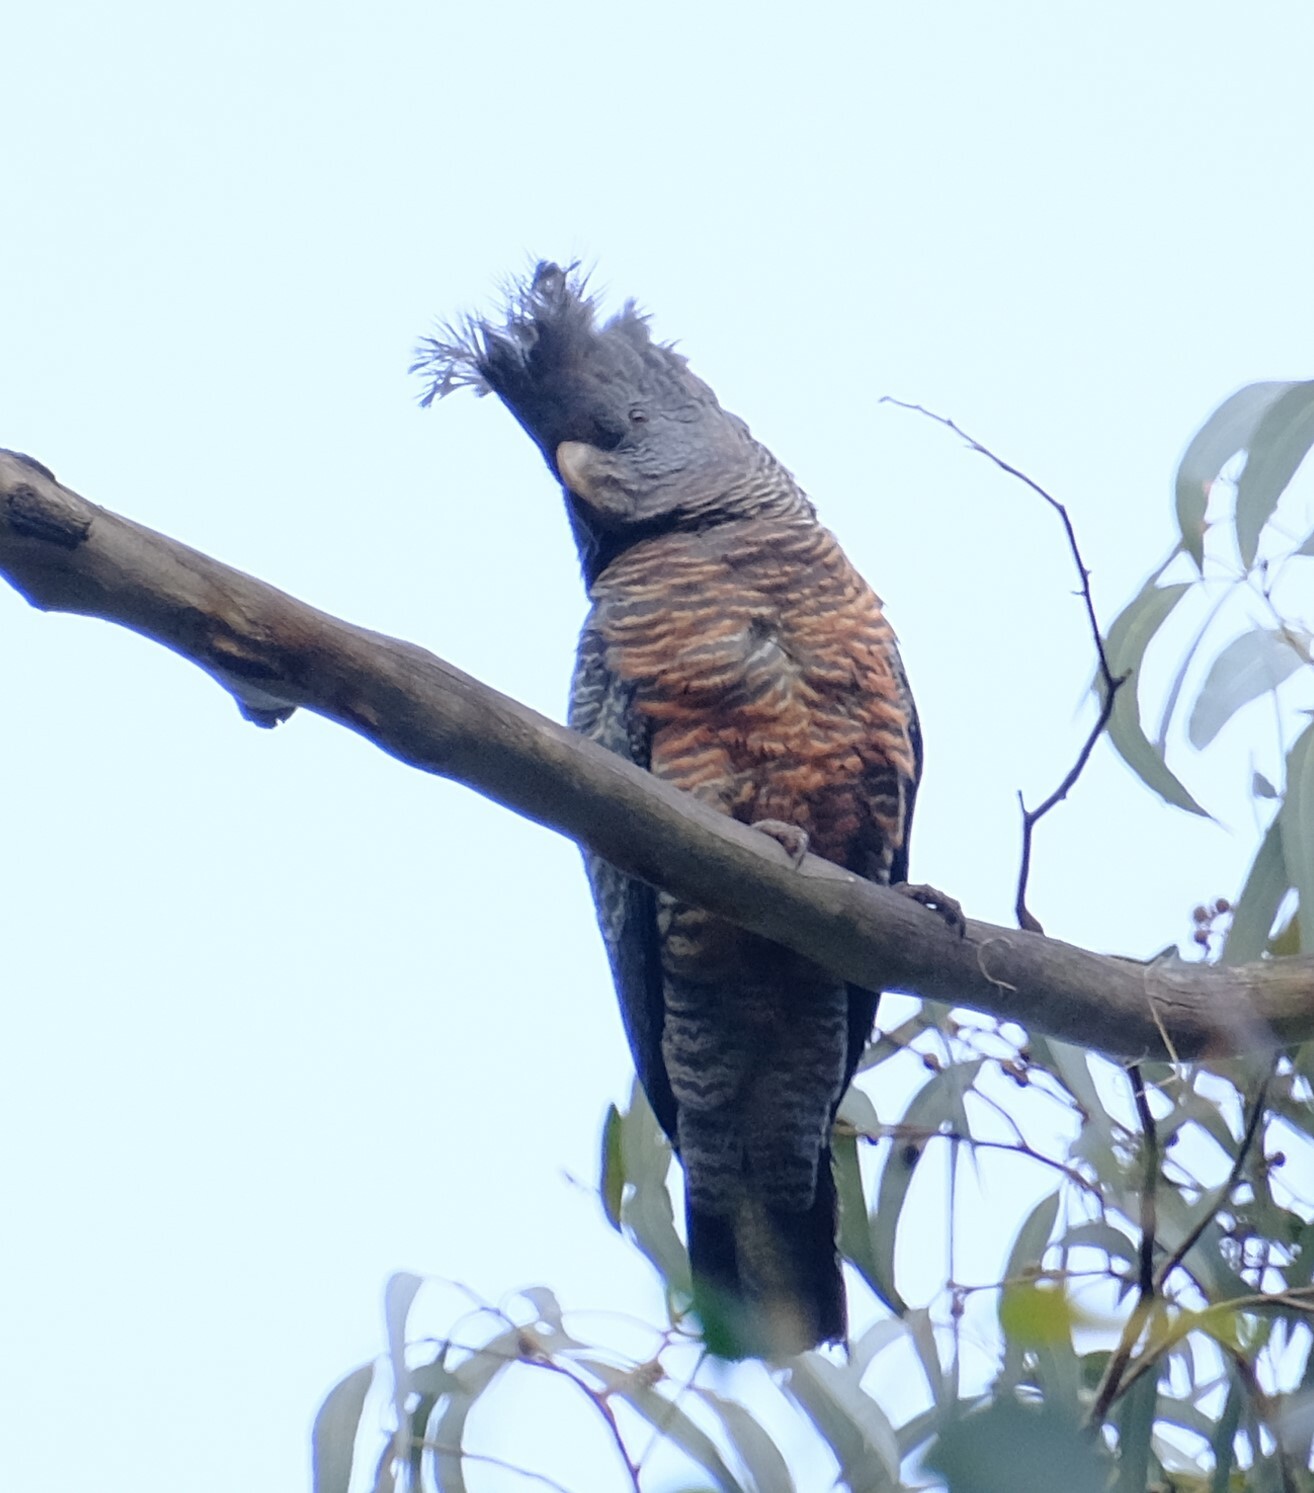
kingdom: Animalia
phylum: Chordata
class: Aves
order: Psittaciformes
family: Psittacidae
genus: Callocephalon
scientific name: Callocephalon fimbriatum
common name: Gang-gang cockatoo
